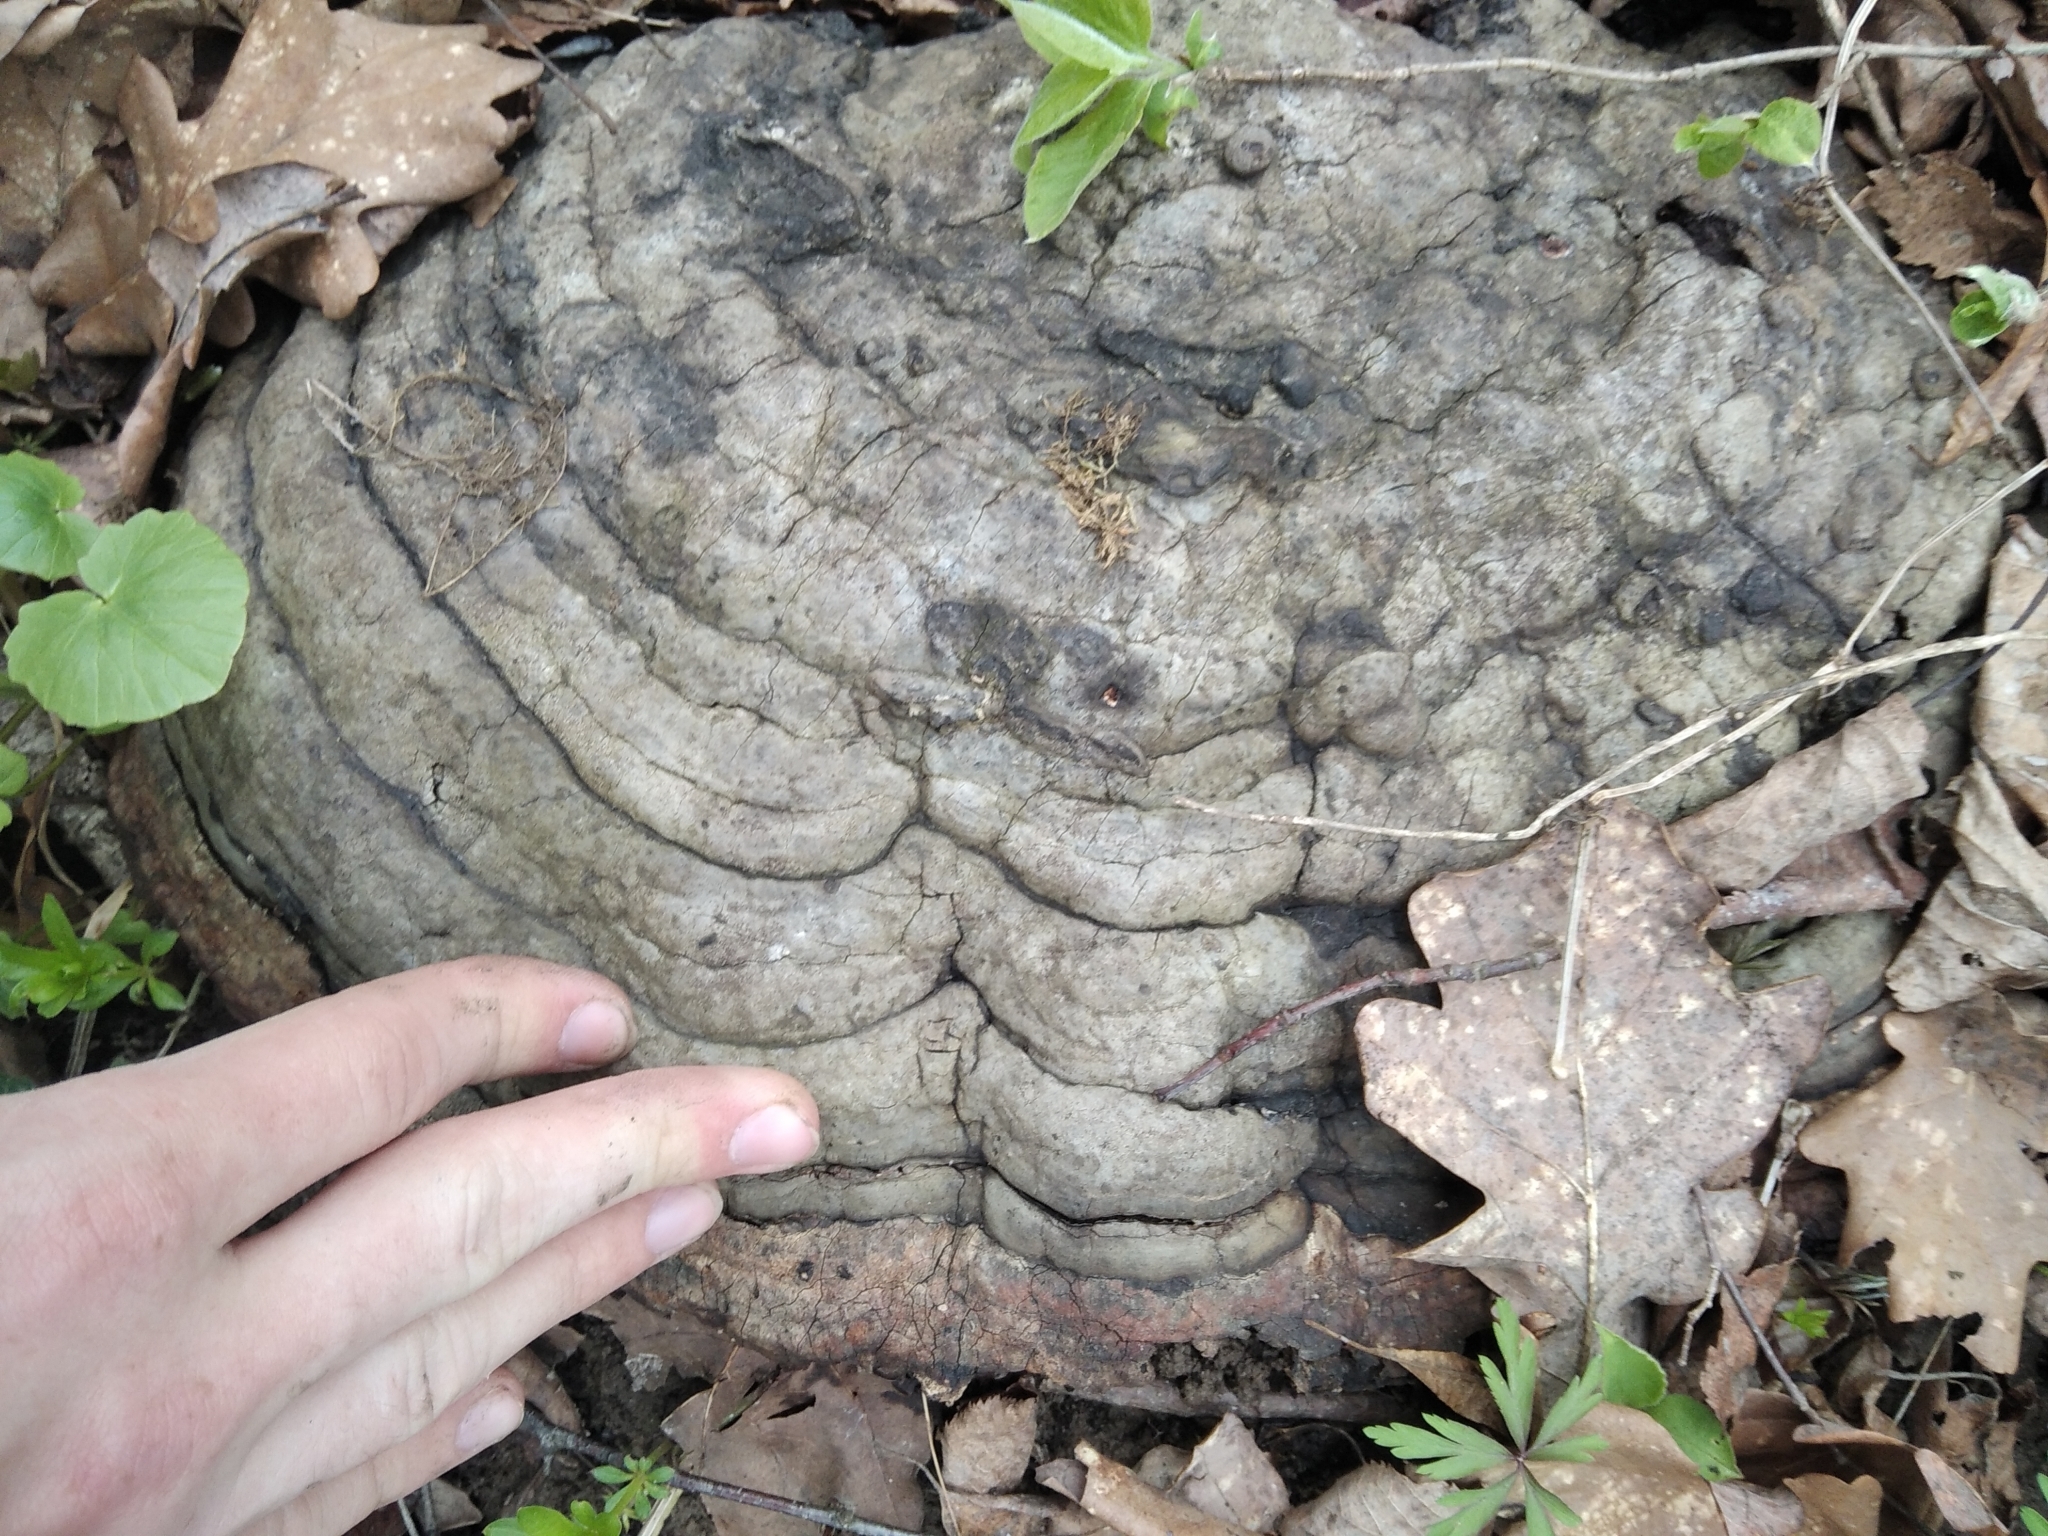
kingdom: Fungi
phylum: Basidiomycota
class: Agaricomycetes
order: Polyporales
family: Polyporaceae
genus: Ganoderma
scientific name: Ganoderma applanatum
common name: Artist's bracket
